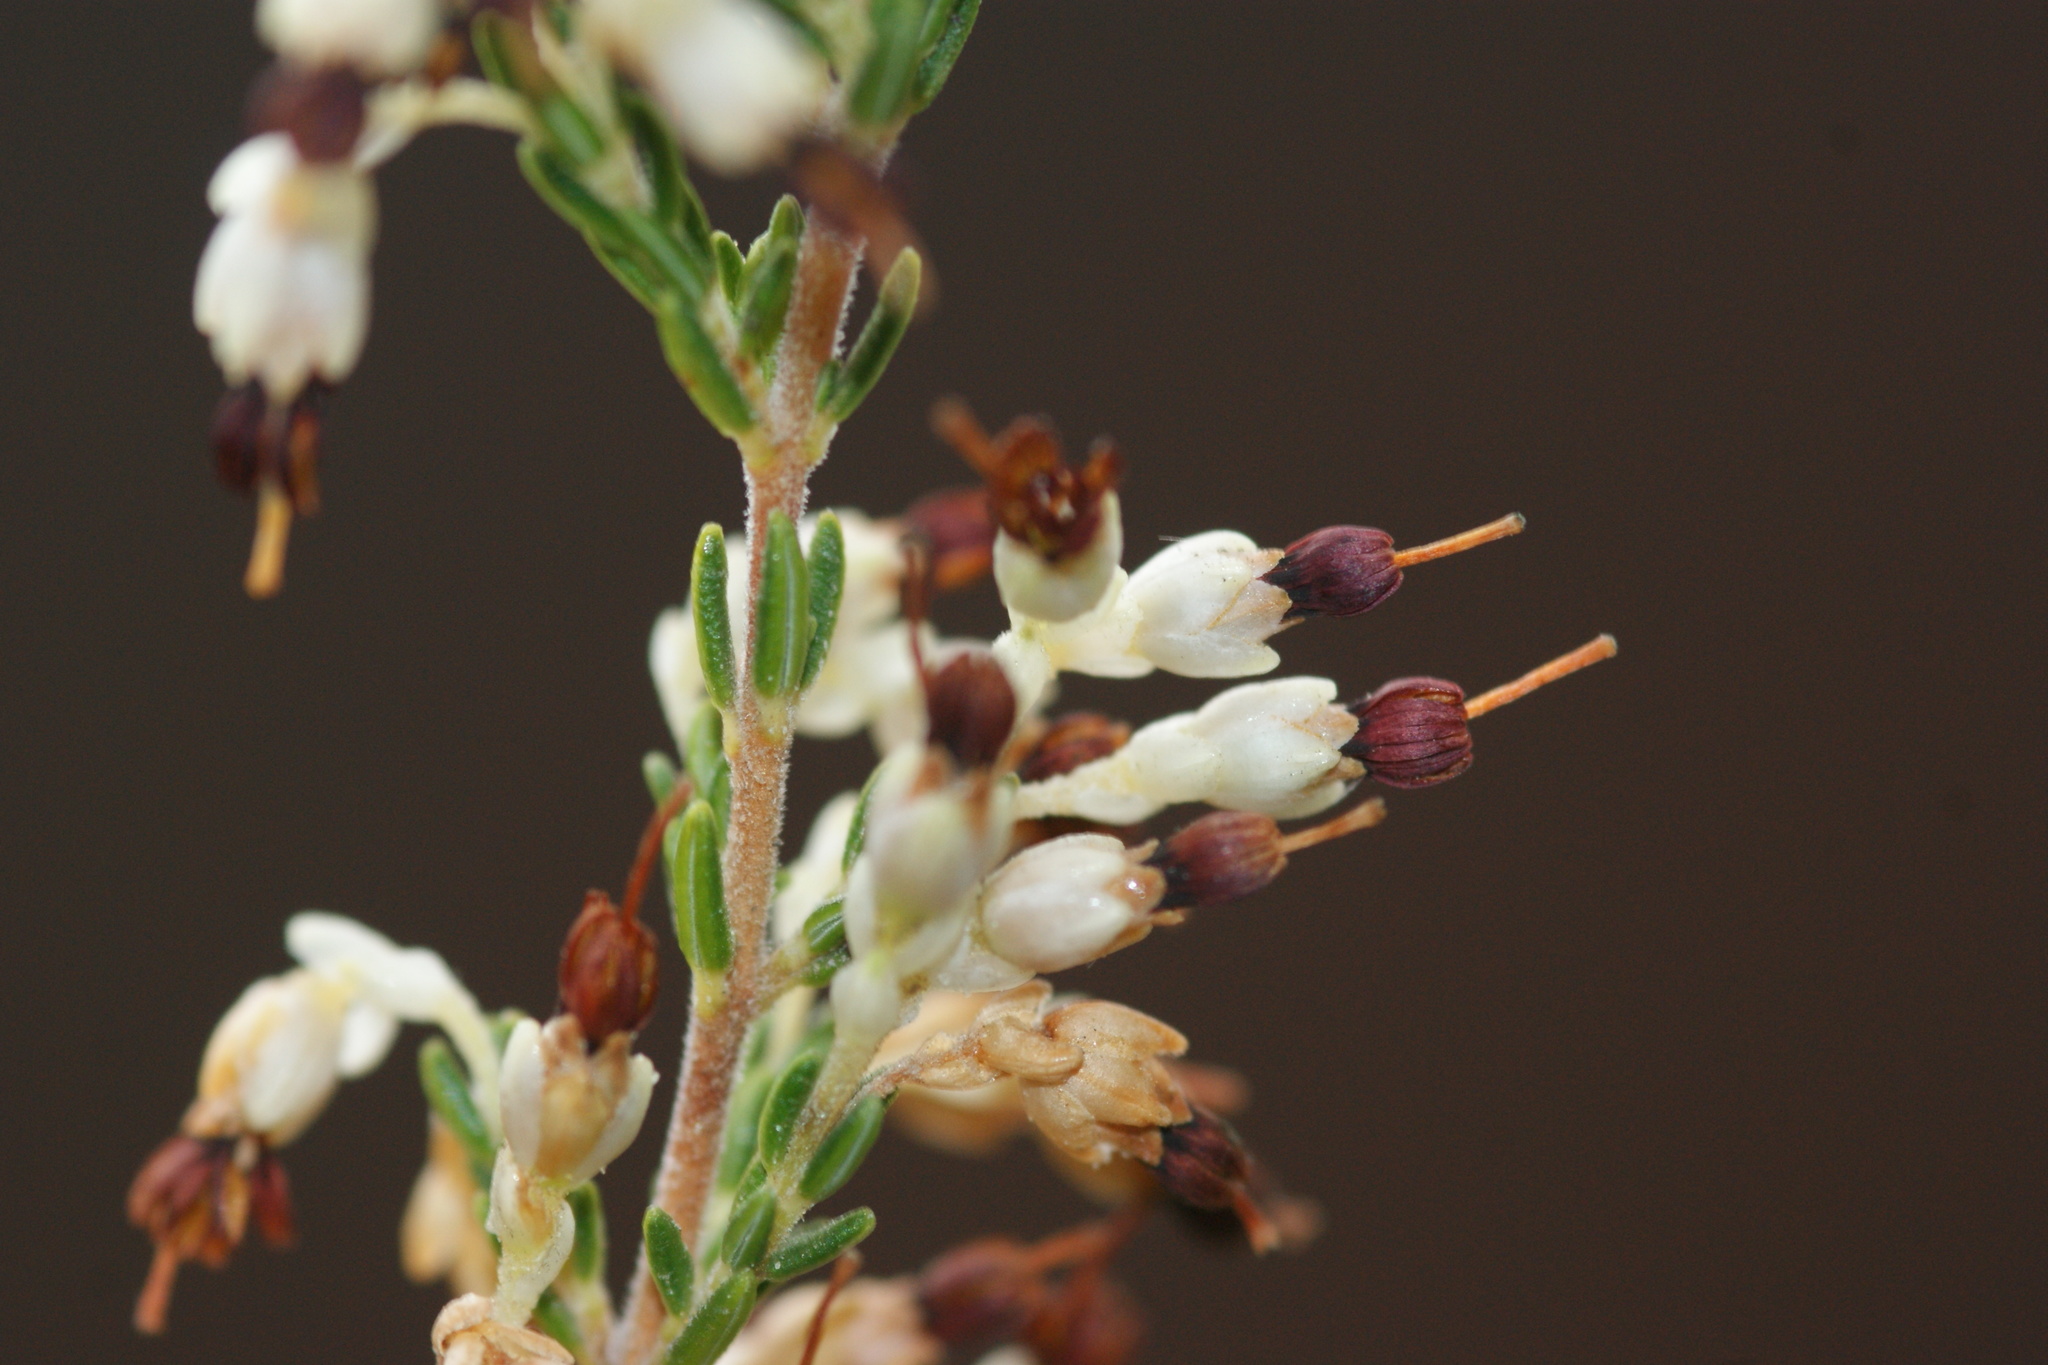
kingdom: Plantae
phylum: Tracheophyta
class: Magnoliopsida
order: Ericales
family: Ericaceae
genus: Erica
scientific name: Erica imbricata
